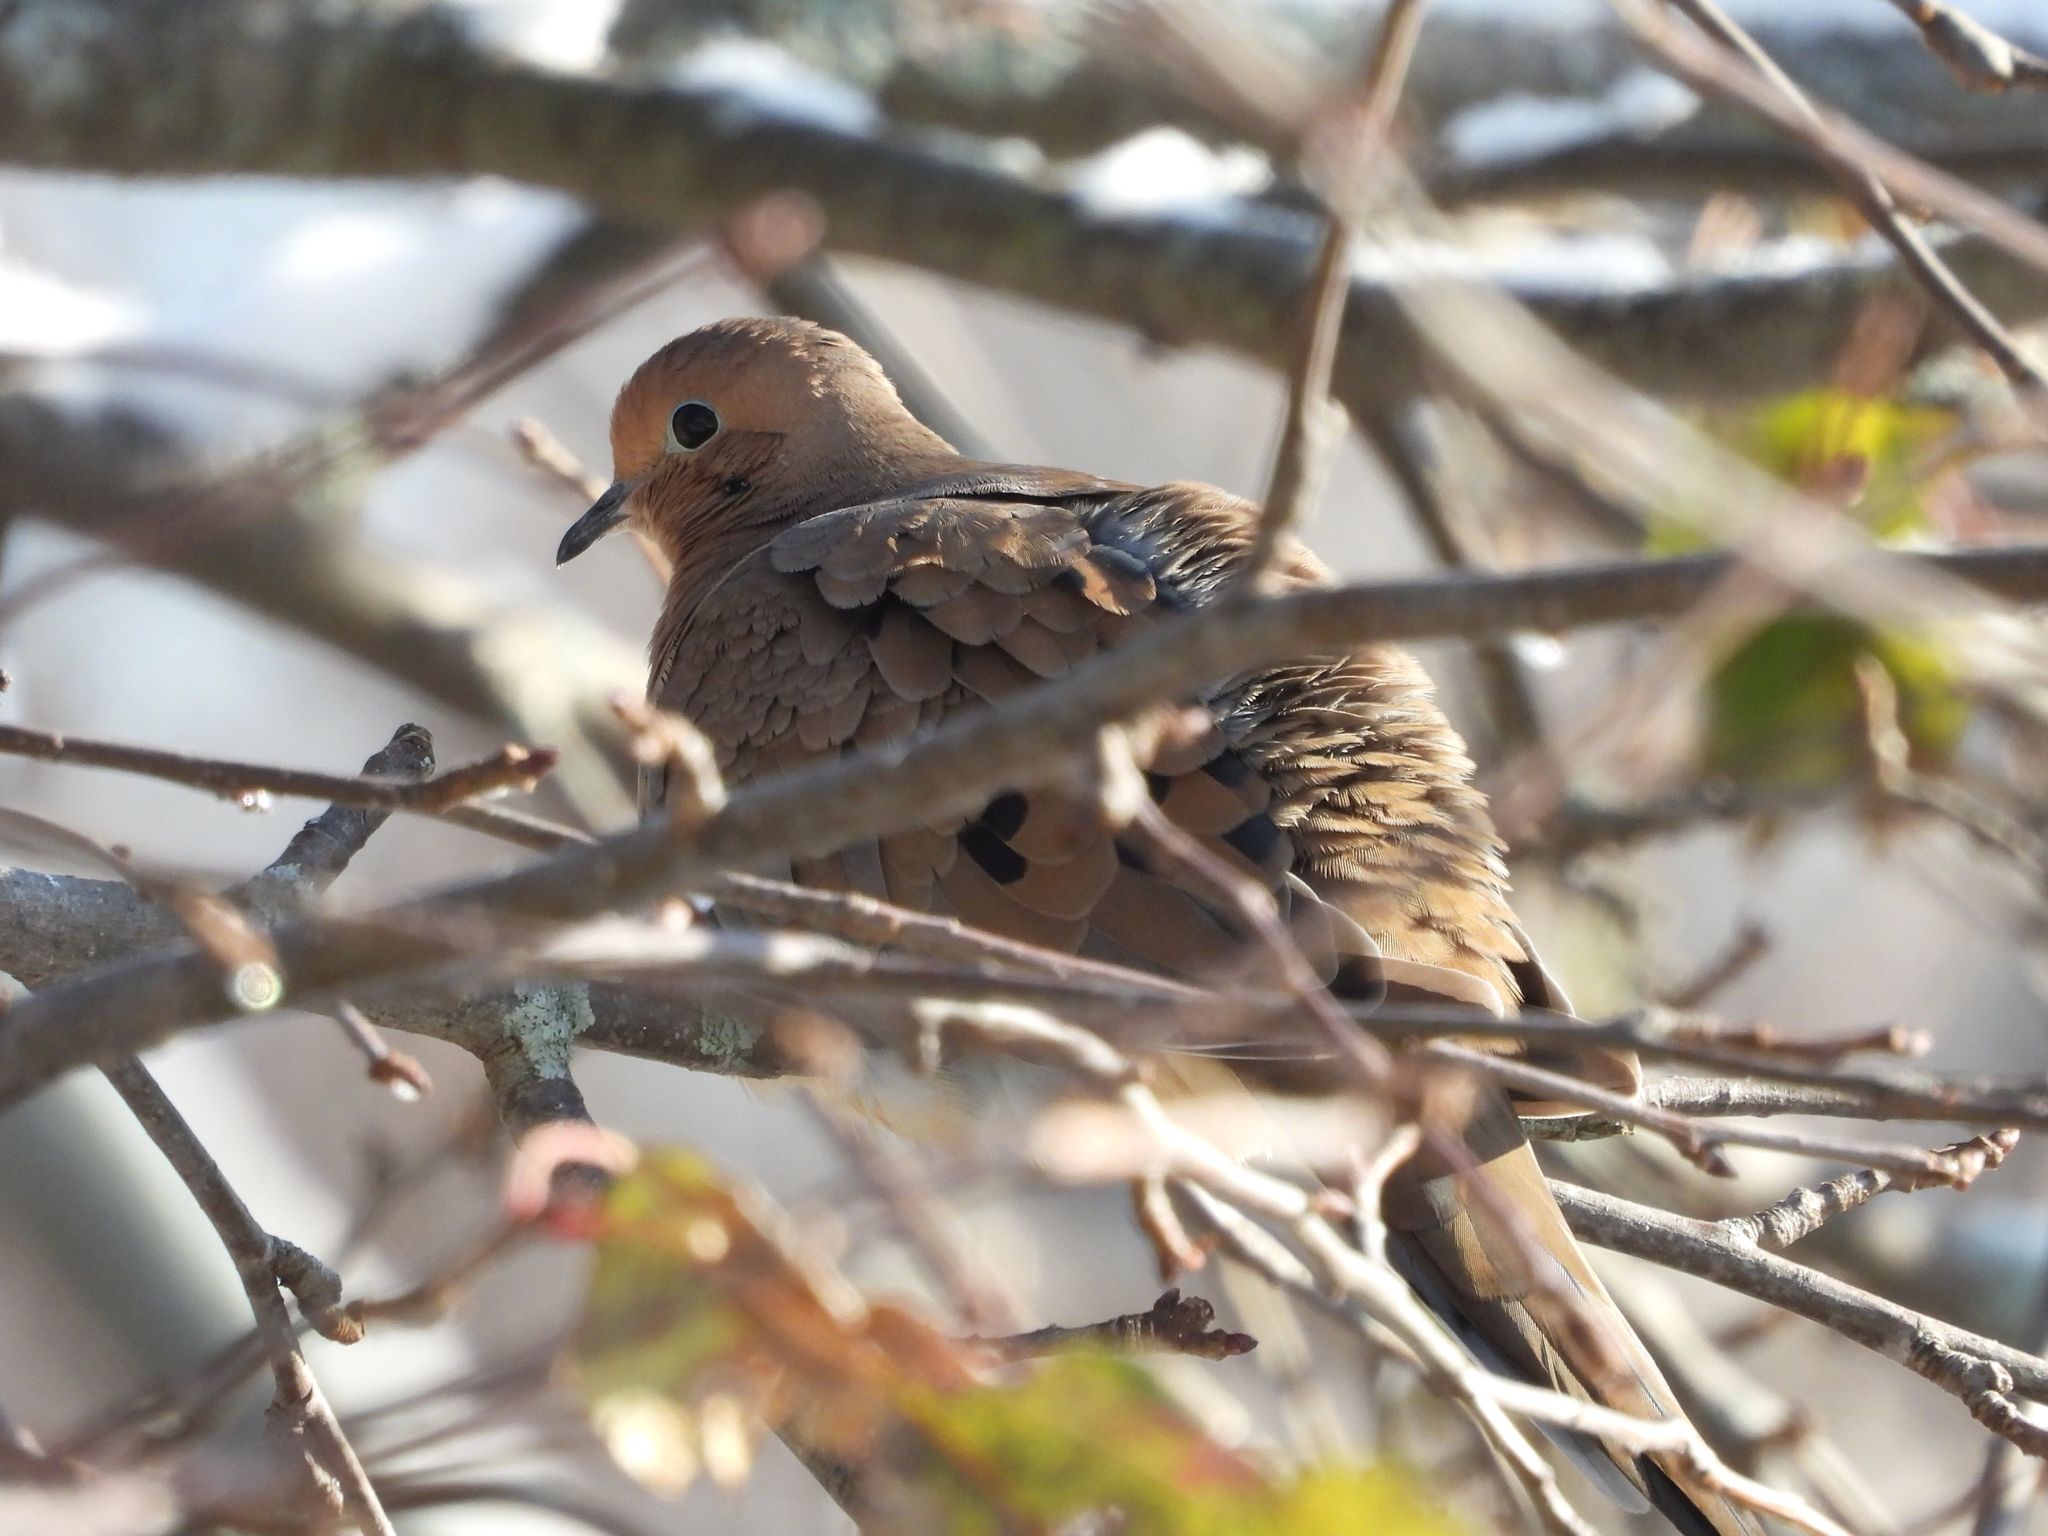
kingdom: Animalia
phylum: Chordata
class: Aves
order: Columbiformes
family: Columbidae
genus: Zenaida
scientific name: Zenaida macroura
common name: Mourning dove
